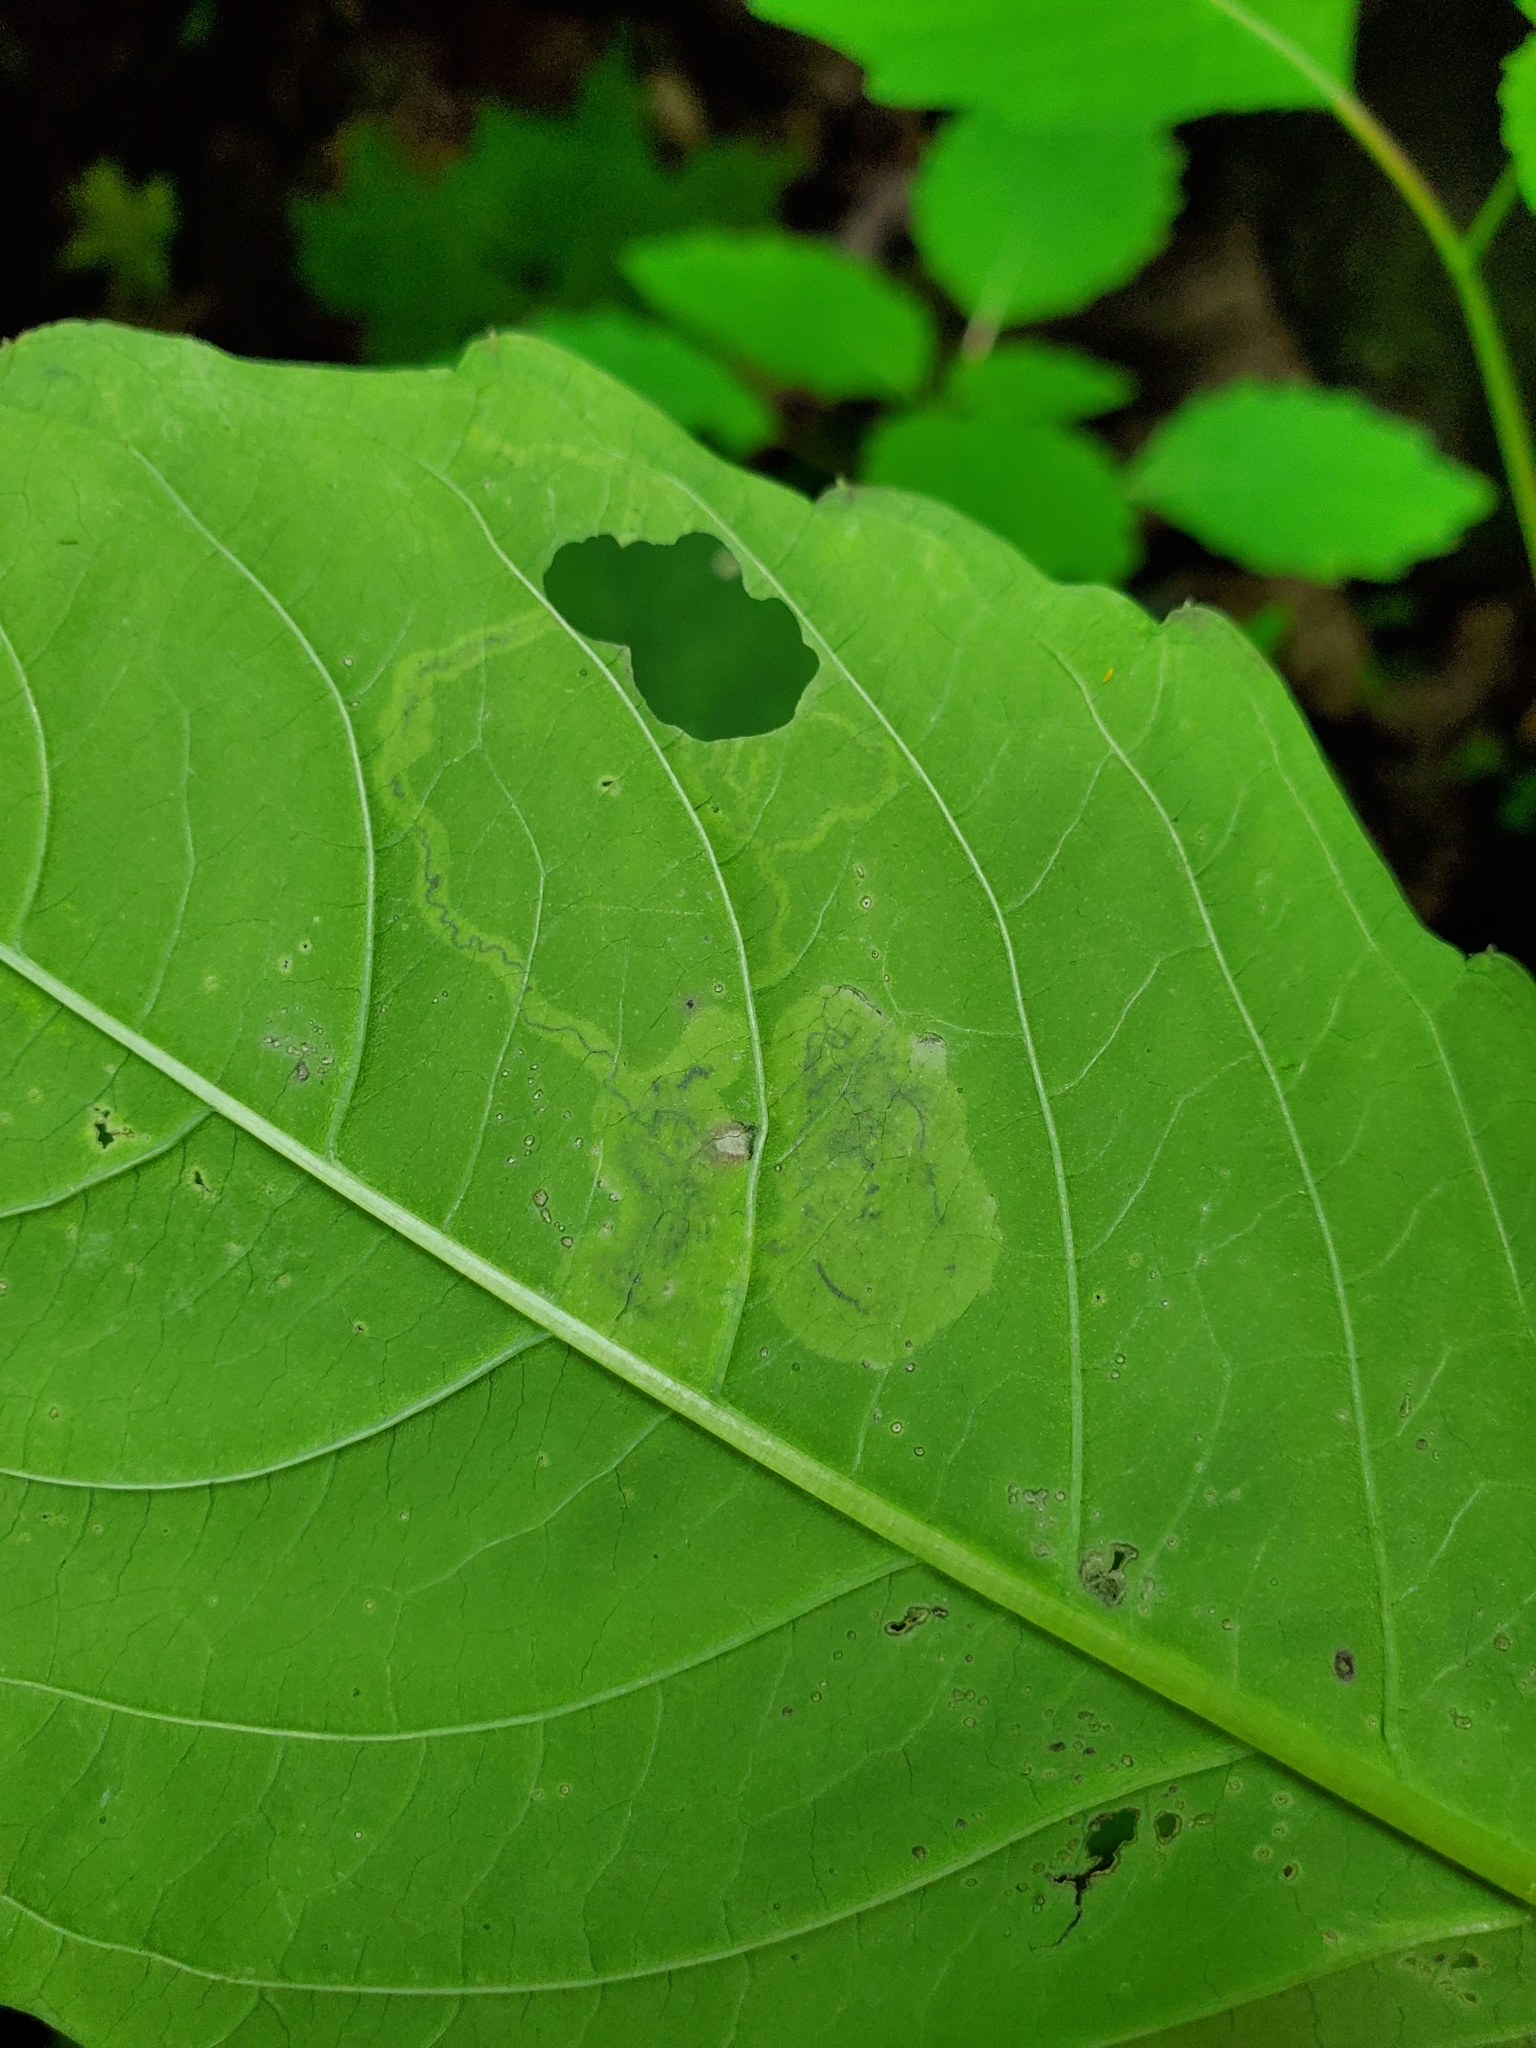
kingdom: Animalia
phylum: Arthropoda
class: Insecta
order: Diptera
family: Agromyzidae
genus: Phytoliriomyza
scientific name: Phytoliriomyza melampyga
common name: Jewelweed leaf-miner fly
